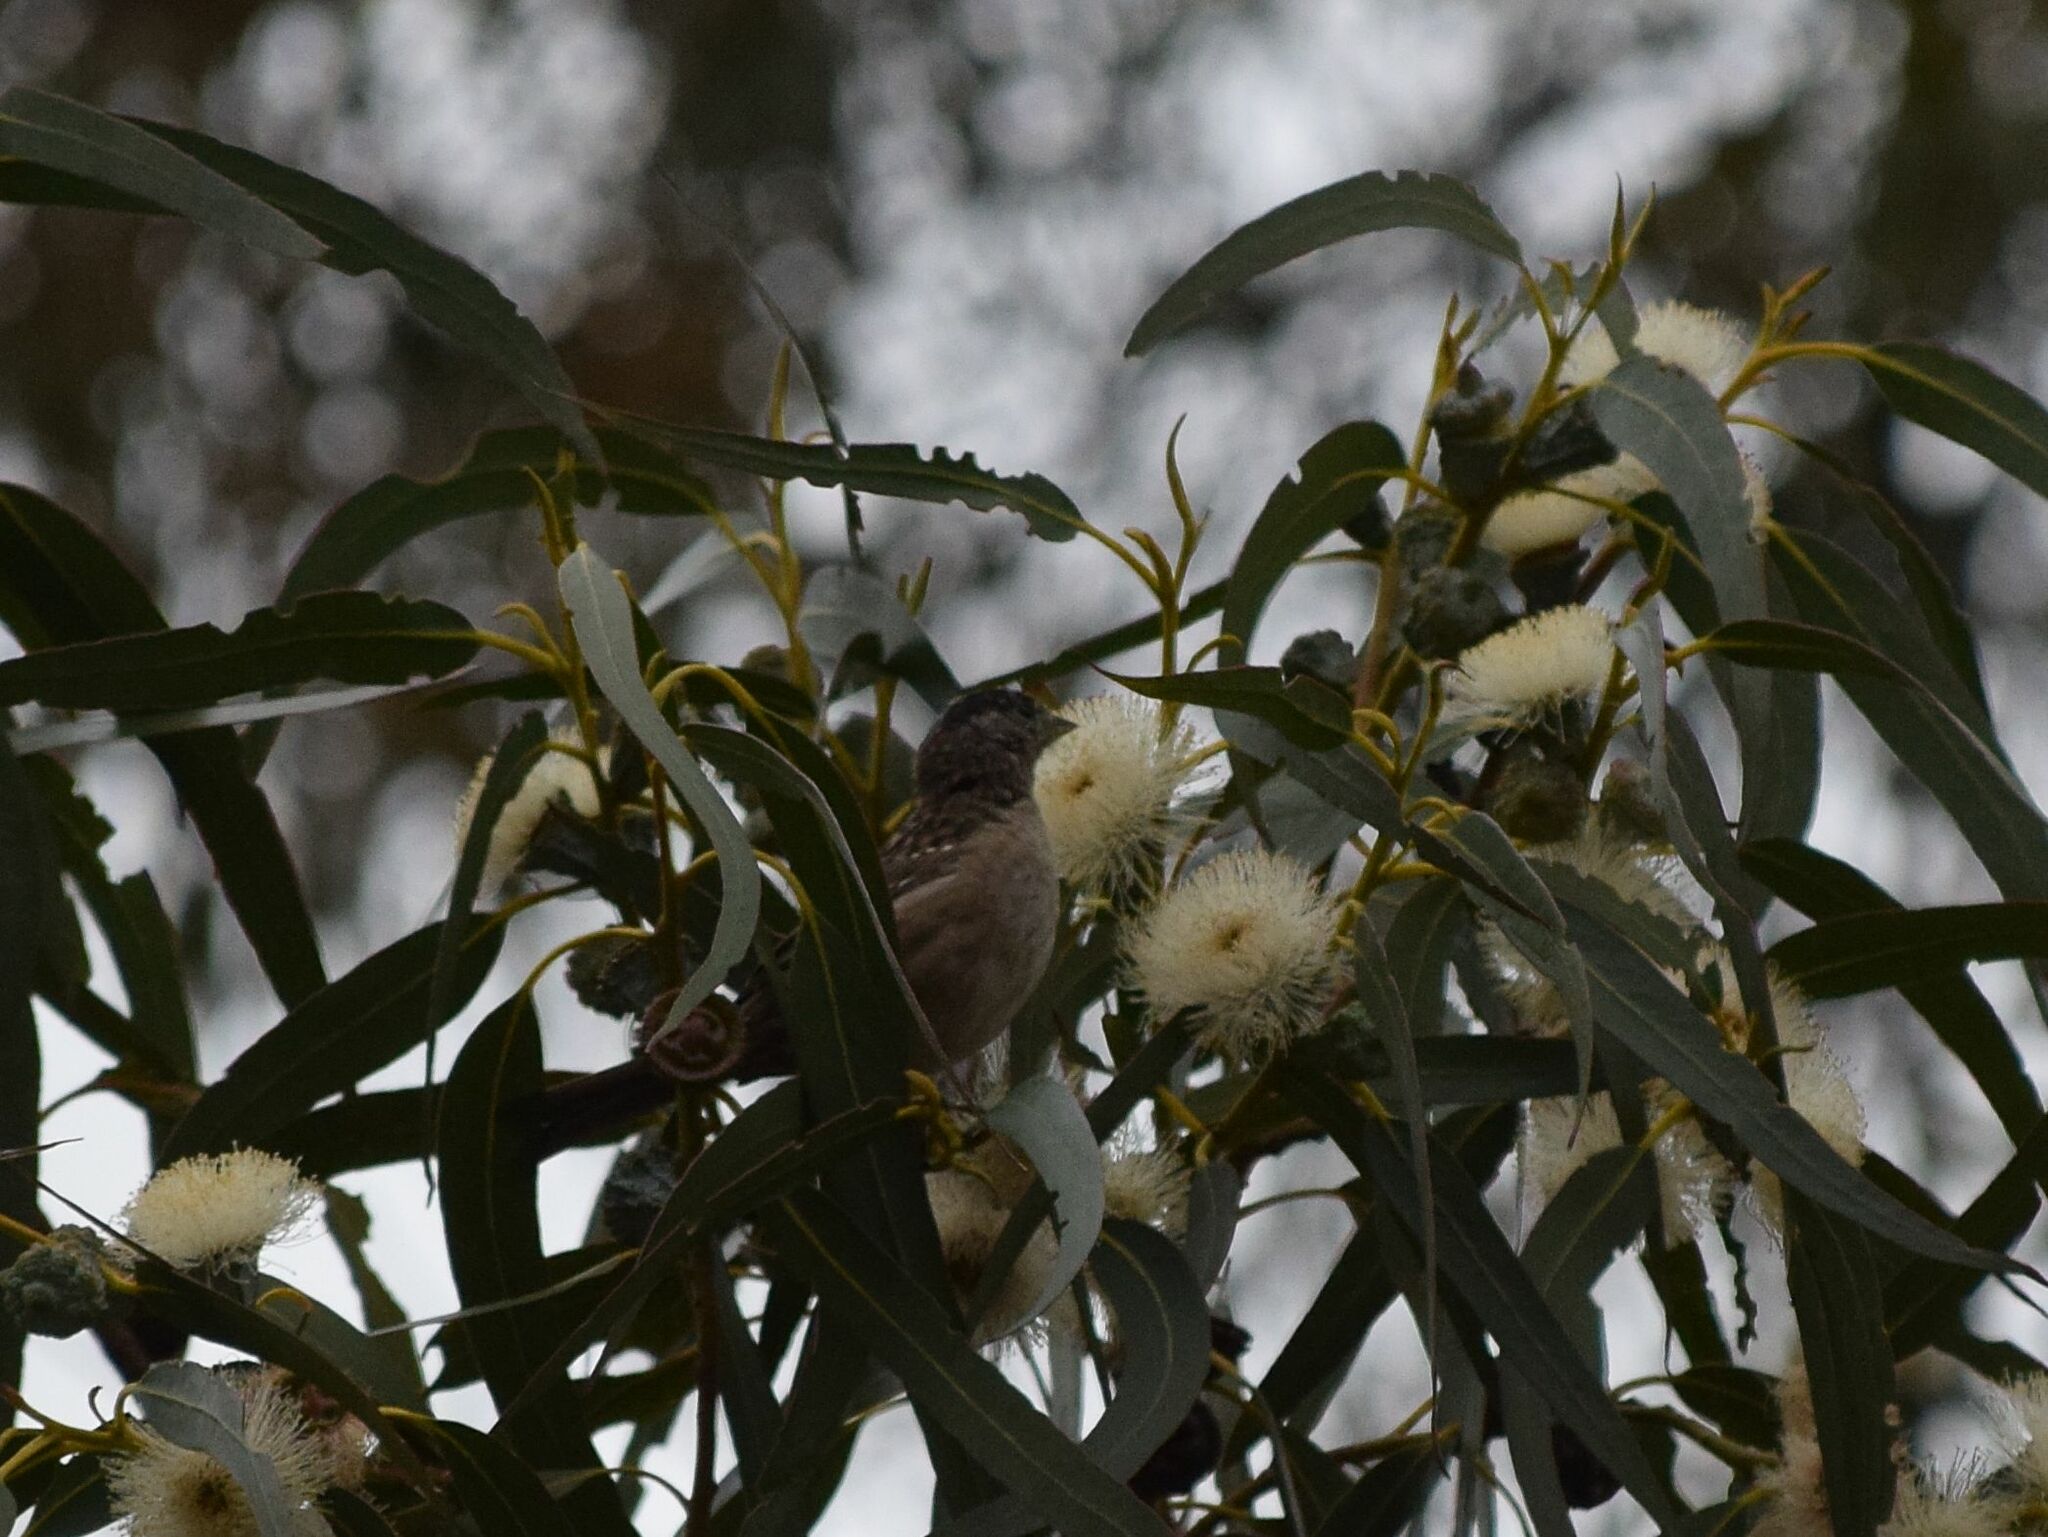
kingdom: Animalia
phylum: Chordata
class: Aves
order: Passeriformes
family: Passerellidae
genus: Zonotrichia
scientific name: Zonotrichia atricapilla
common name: Golden-crowned sparrow
